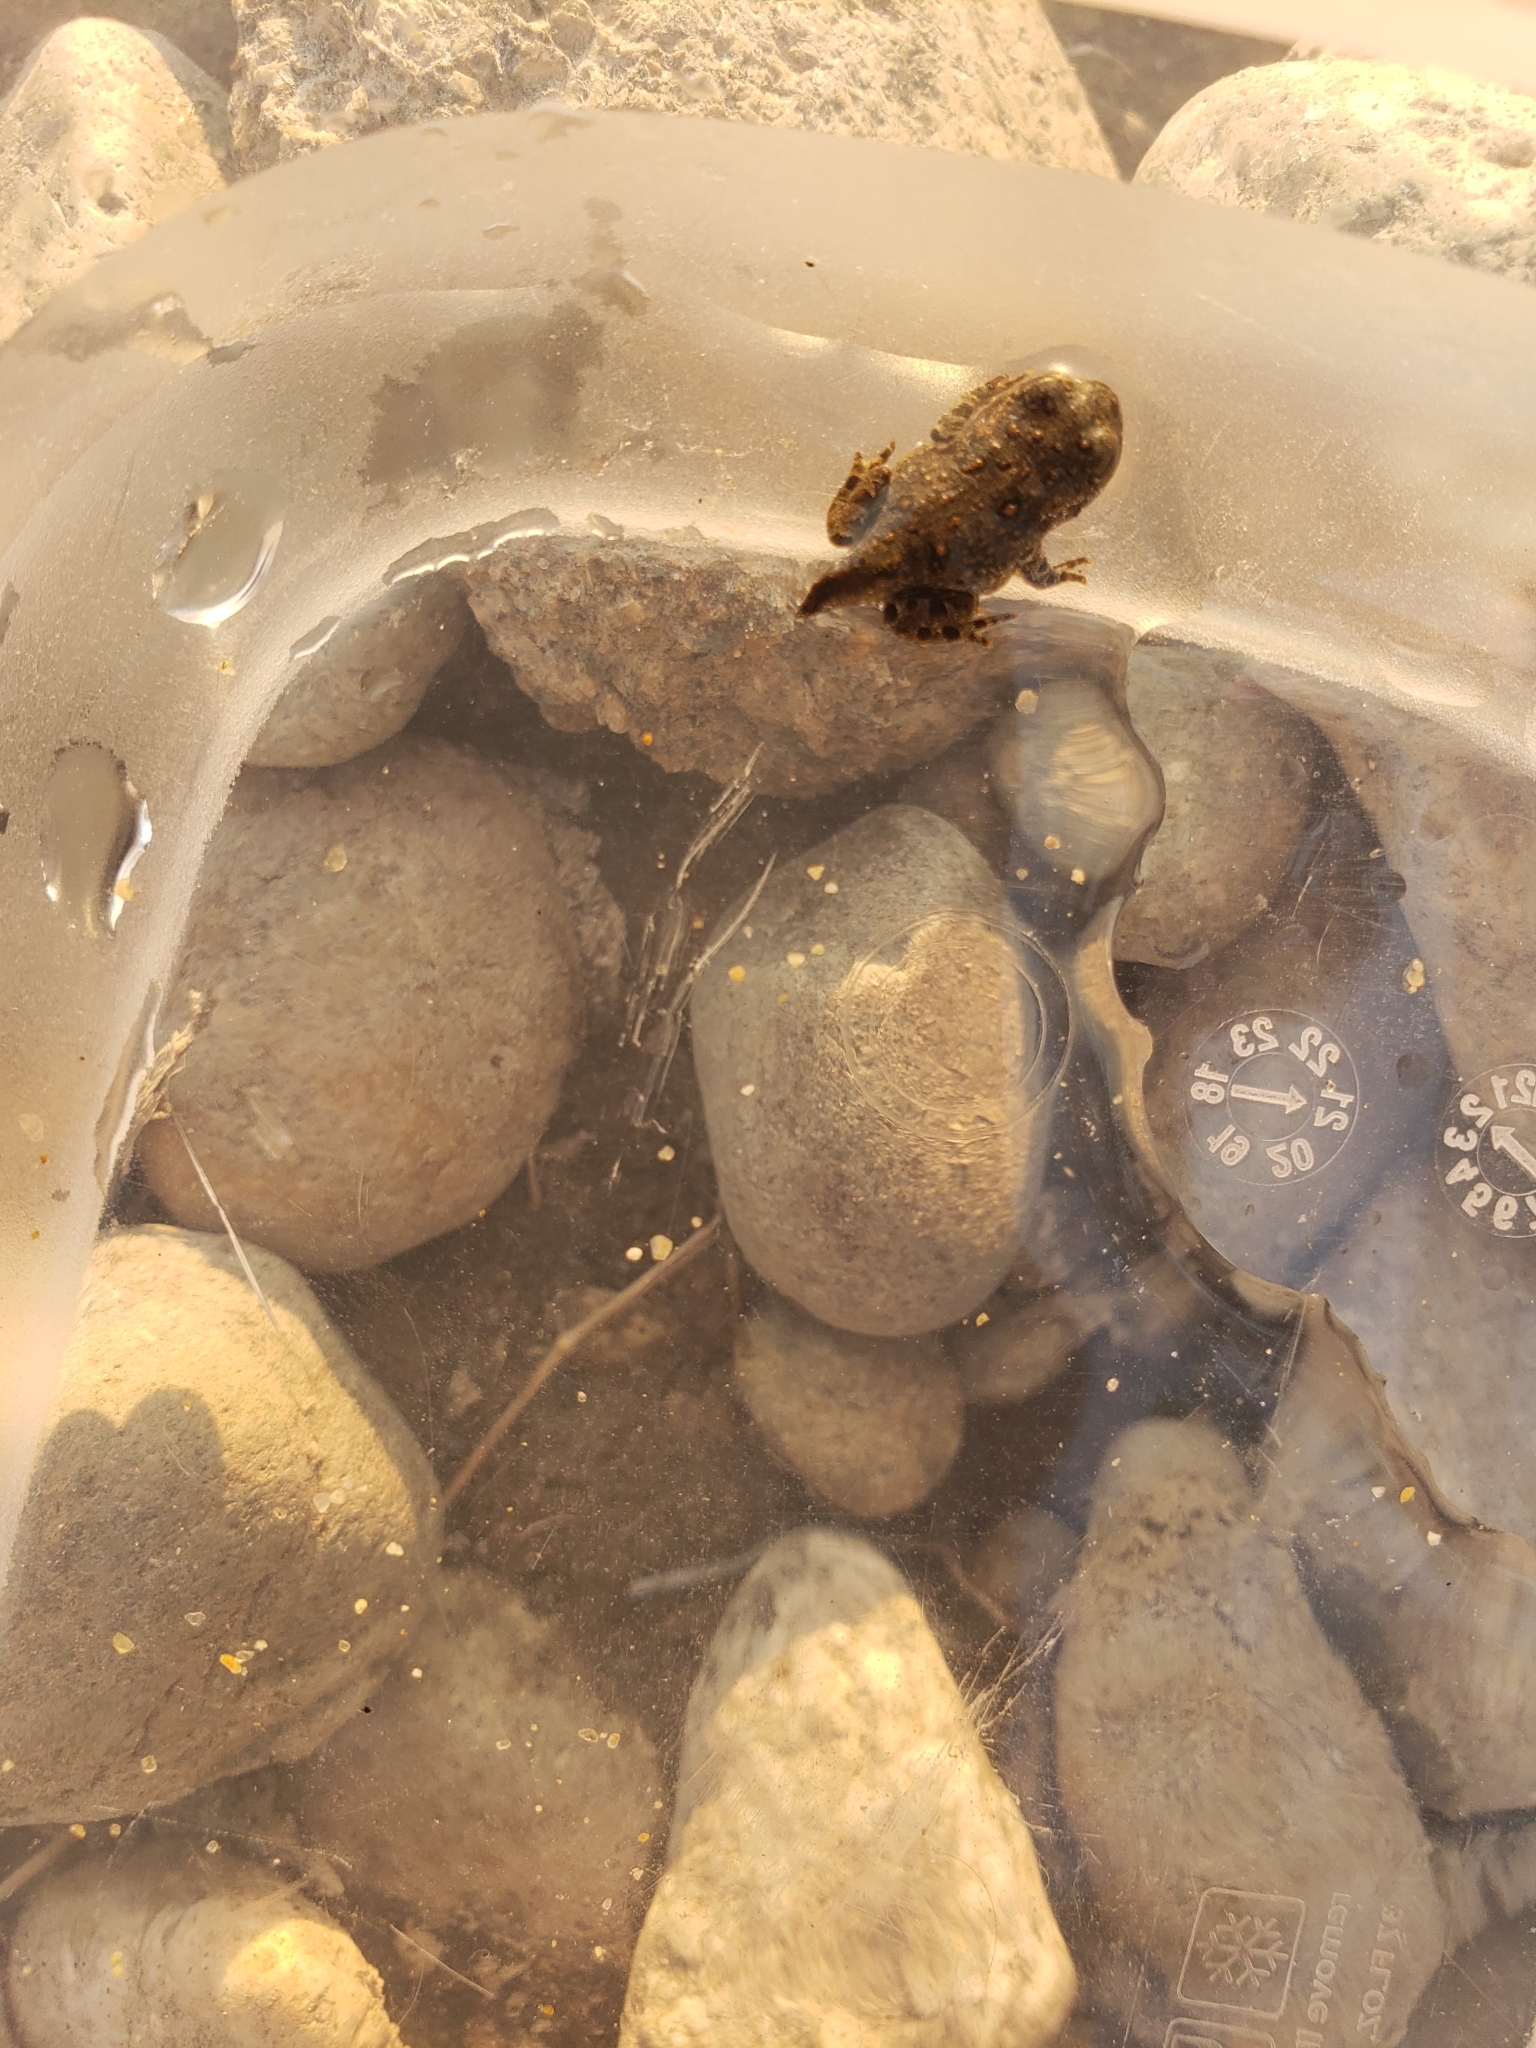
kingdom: Animalia
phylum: Chordata
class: Amphibia
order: Anura
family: Bufonidae
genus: Anaxyrus
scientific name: Anaxyrus boreas
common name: Western toad
